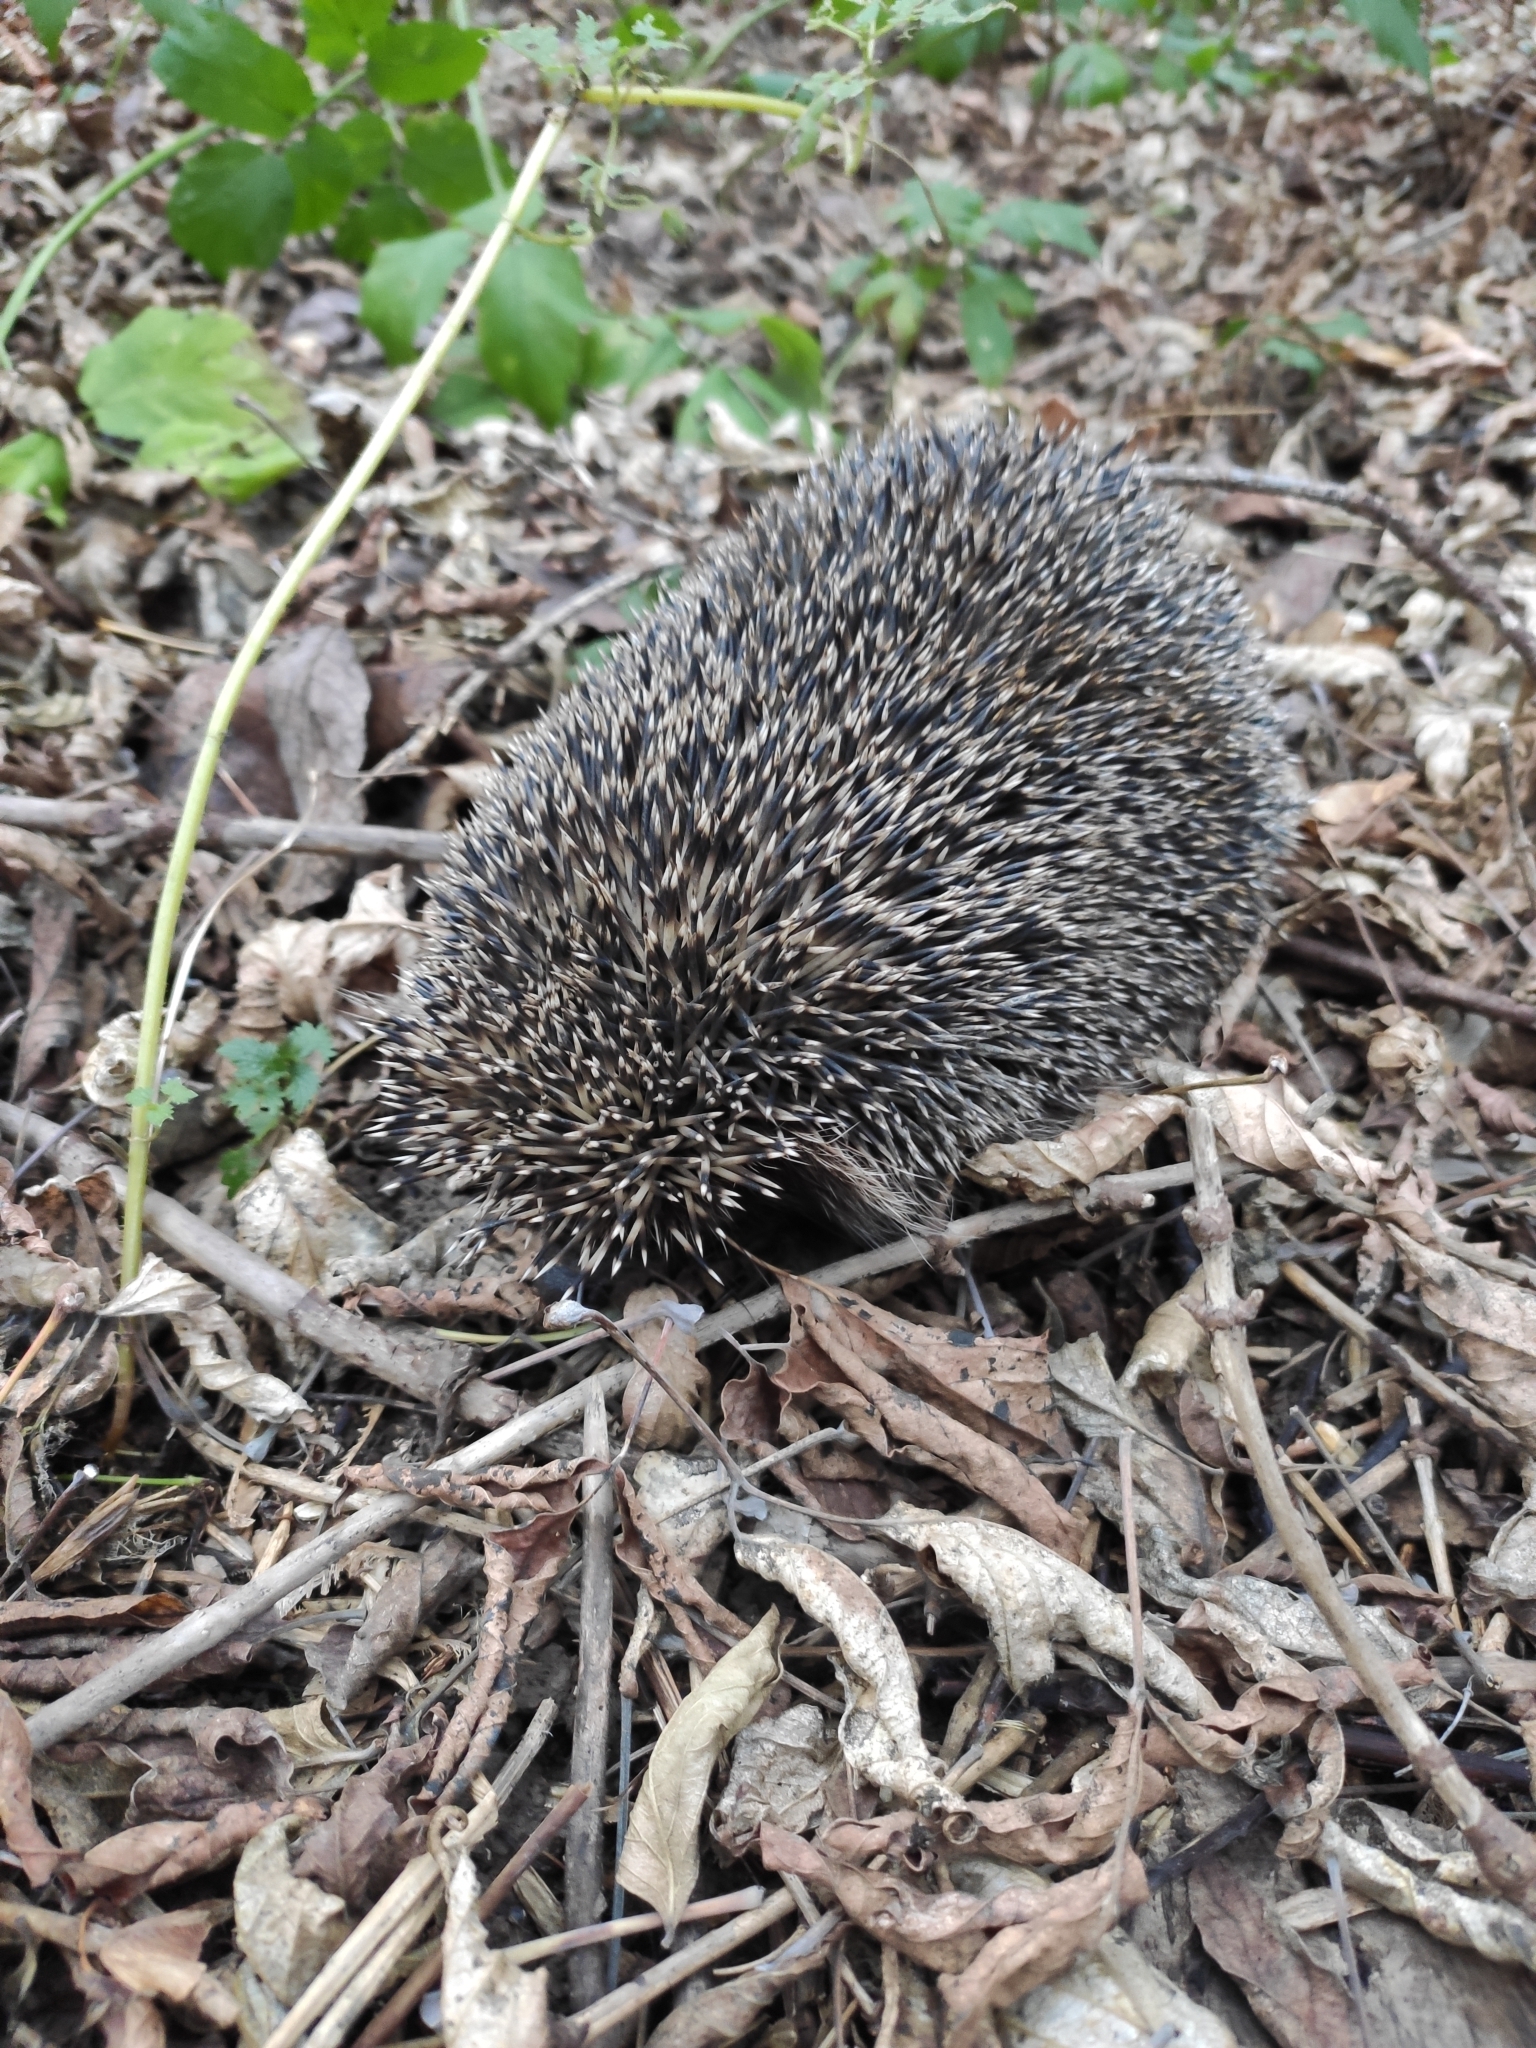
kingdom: Animalia
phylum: Chordata
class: Mammalia
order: Erinaceomorpha
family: Erinaceidae
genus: Erinaceus
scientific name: Erinaceus roumanicus
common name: Northern white-breasted hedgehog
